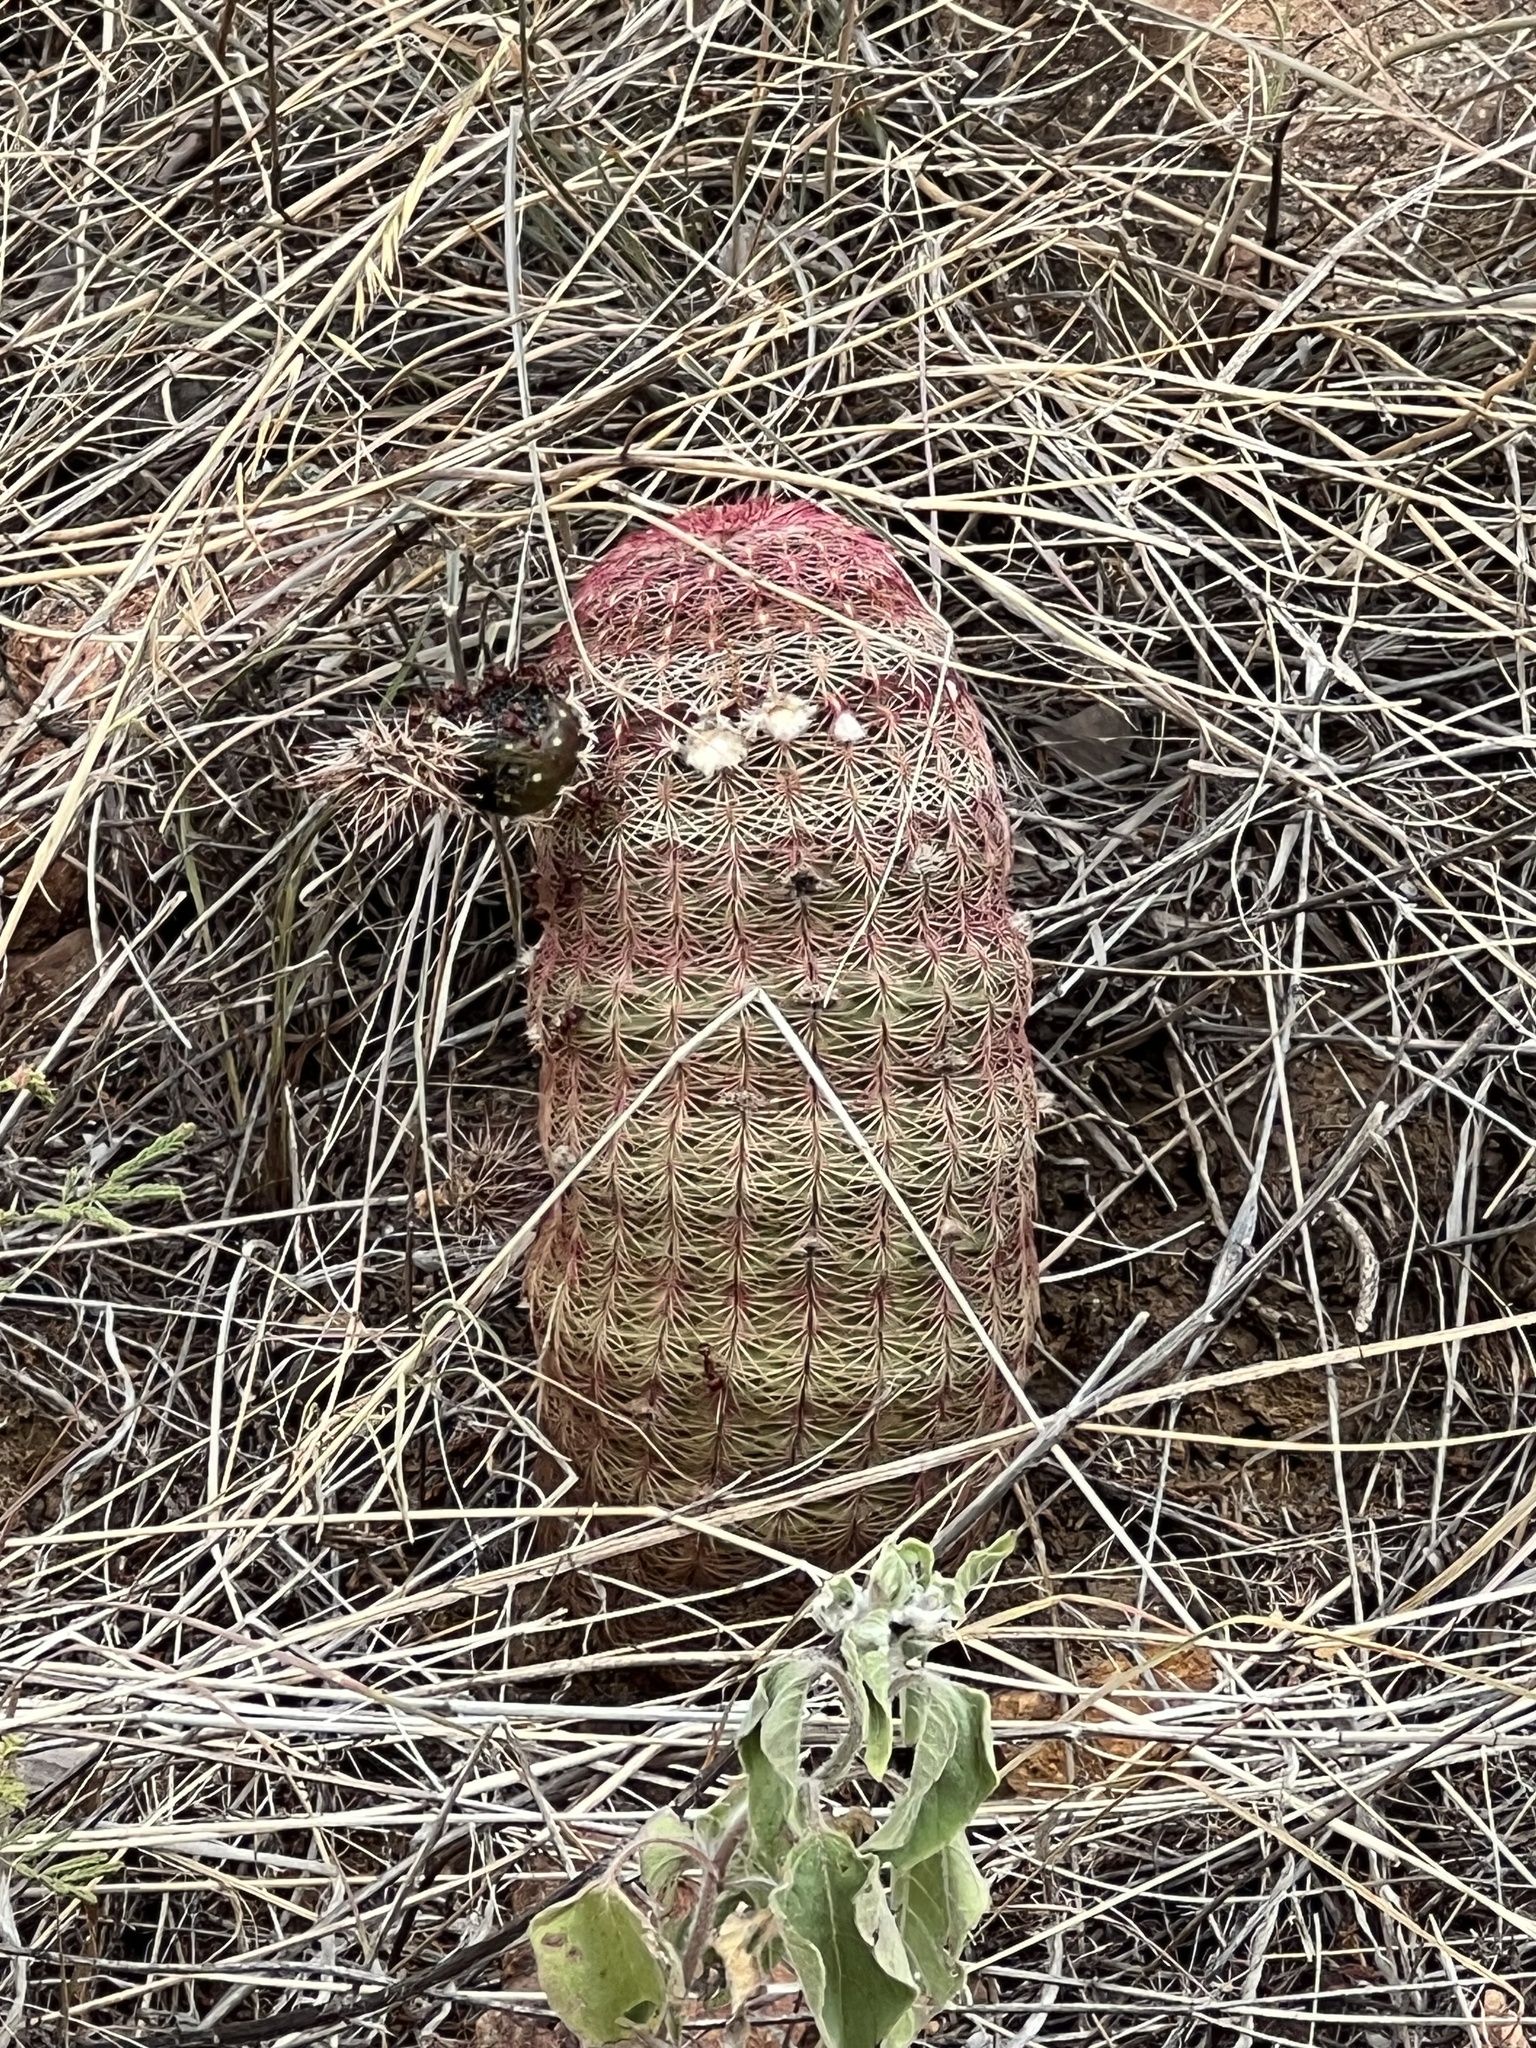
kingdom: Plantae
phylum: Tracheophyta
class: Magnoliopsida
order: Caryophyllales
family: Cactaceae
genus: Echinocereus
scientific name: Echinocereus rigidissimus
